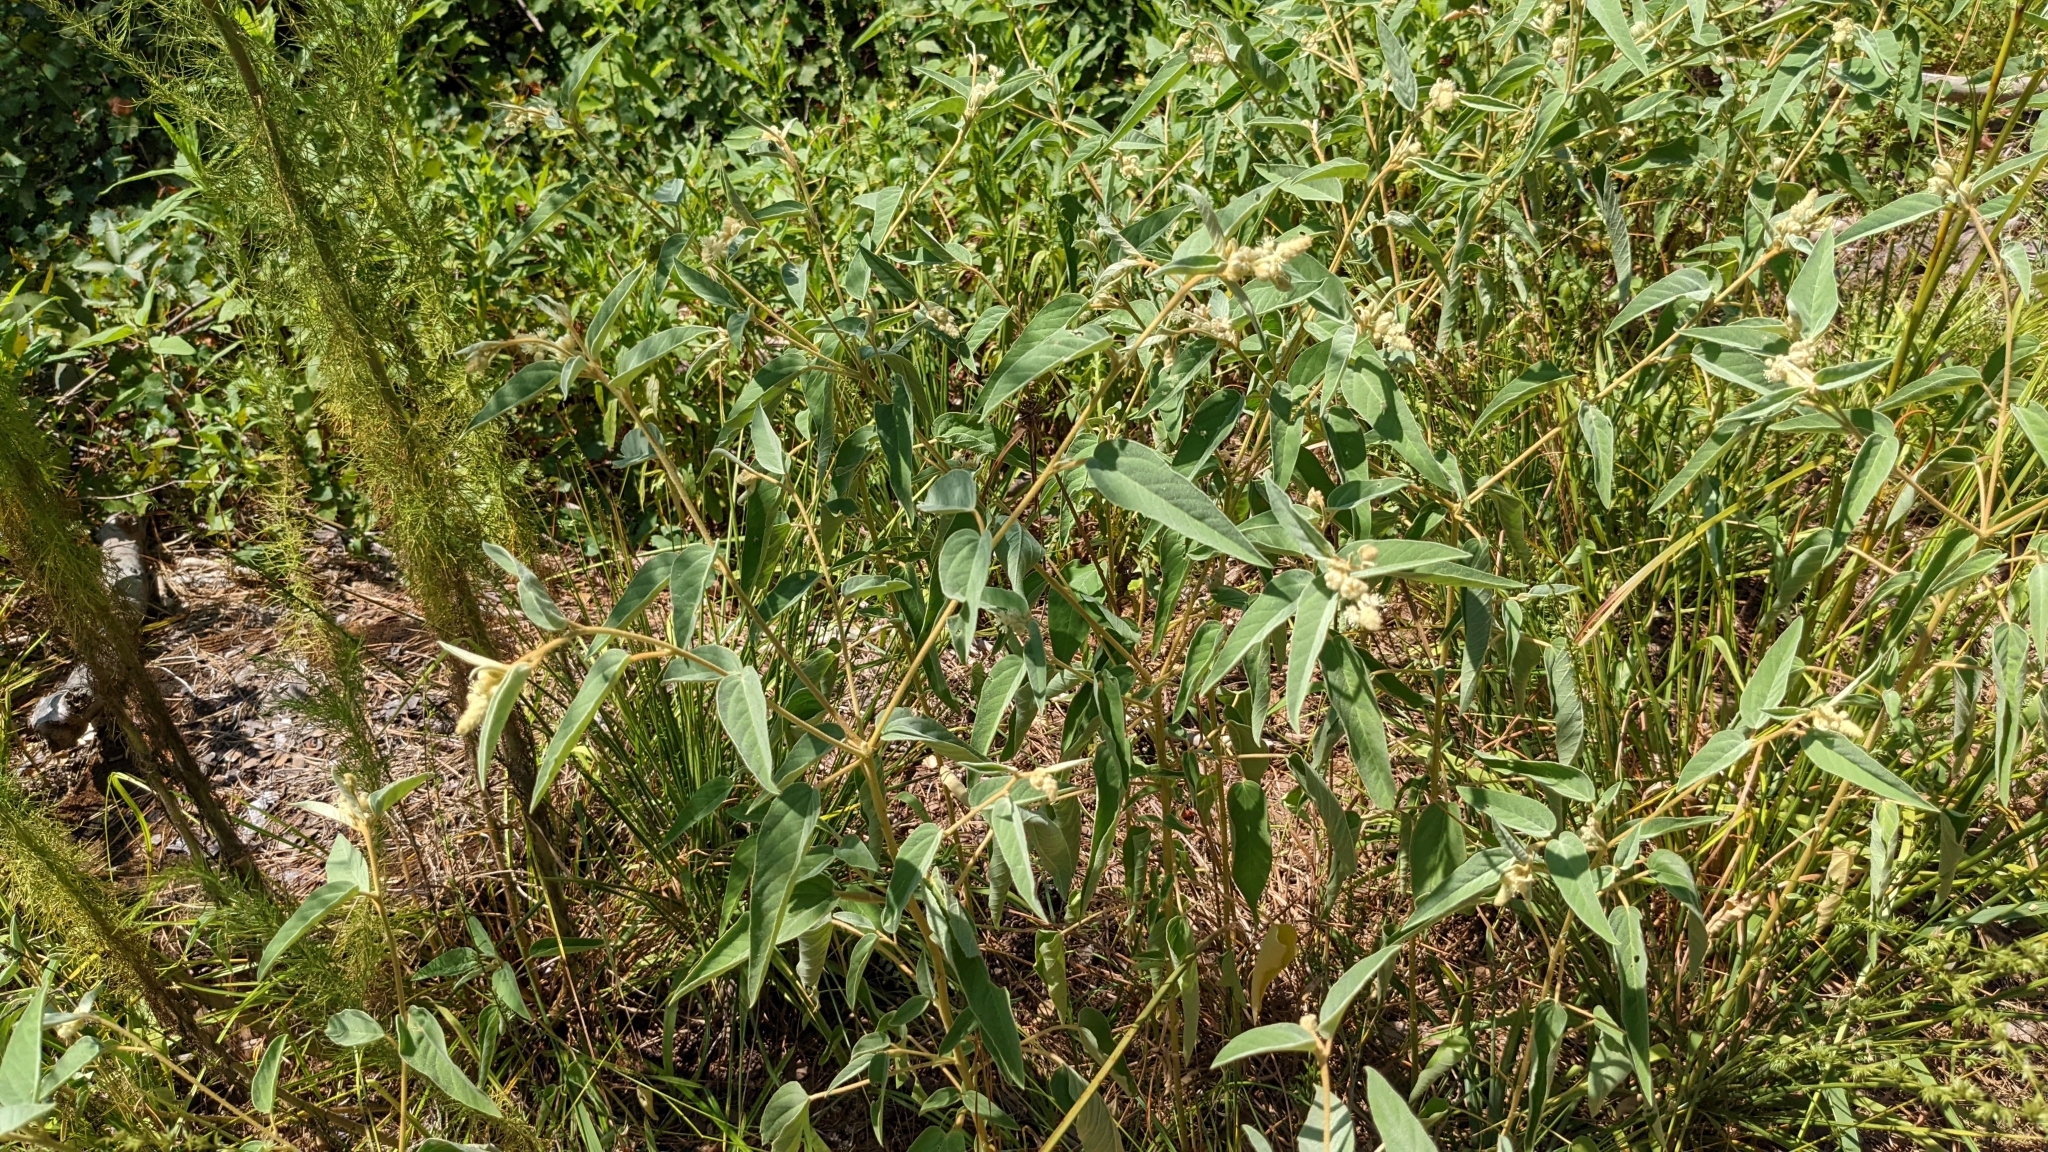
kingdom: Plantae
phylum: Tracheophyta
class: Magnoliopsida
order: Malpighiales
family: Euphorbiaceae
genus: Croton
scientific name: Croton lindheimeri
